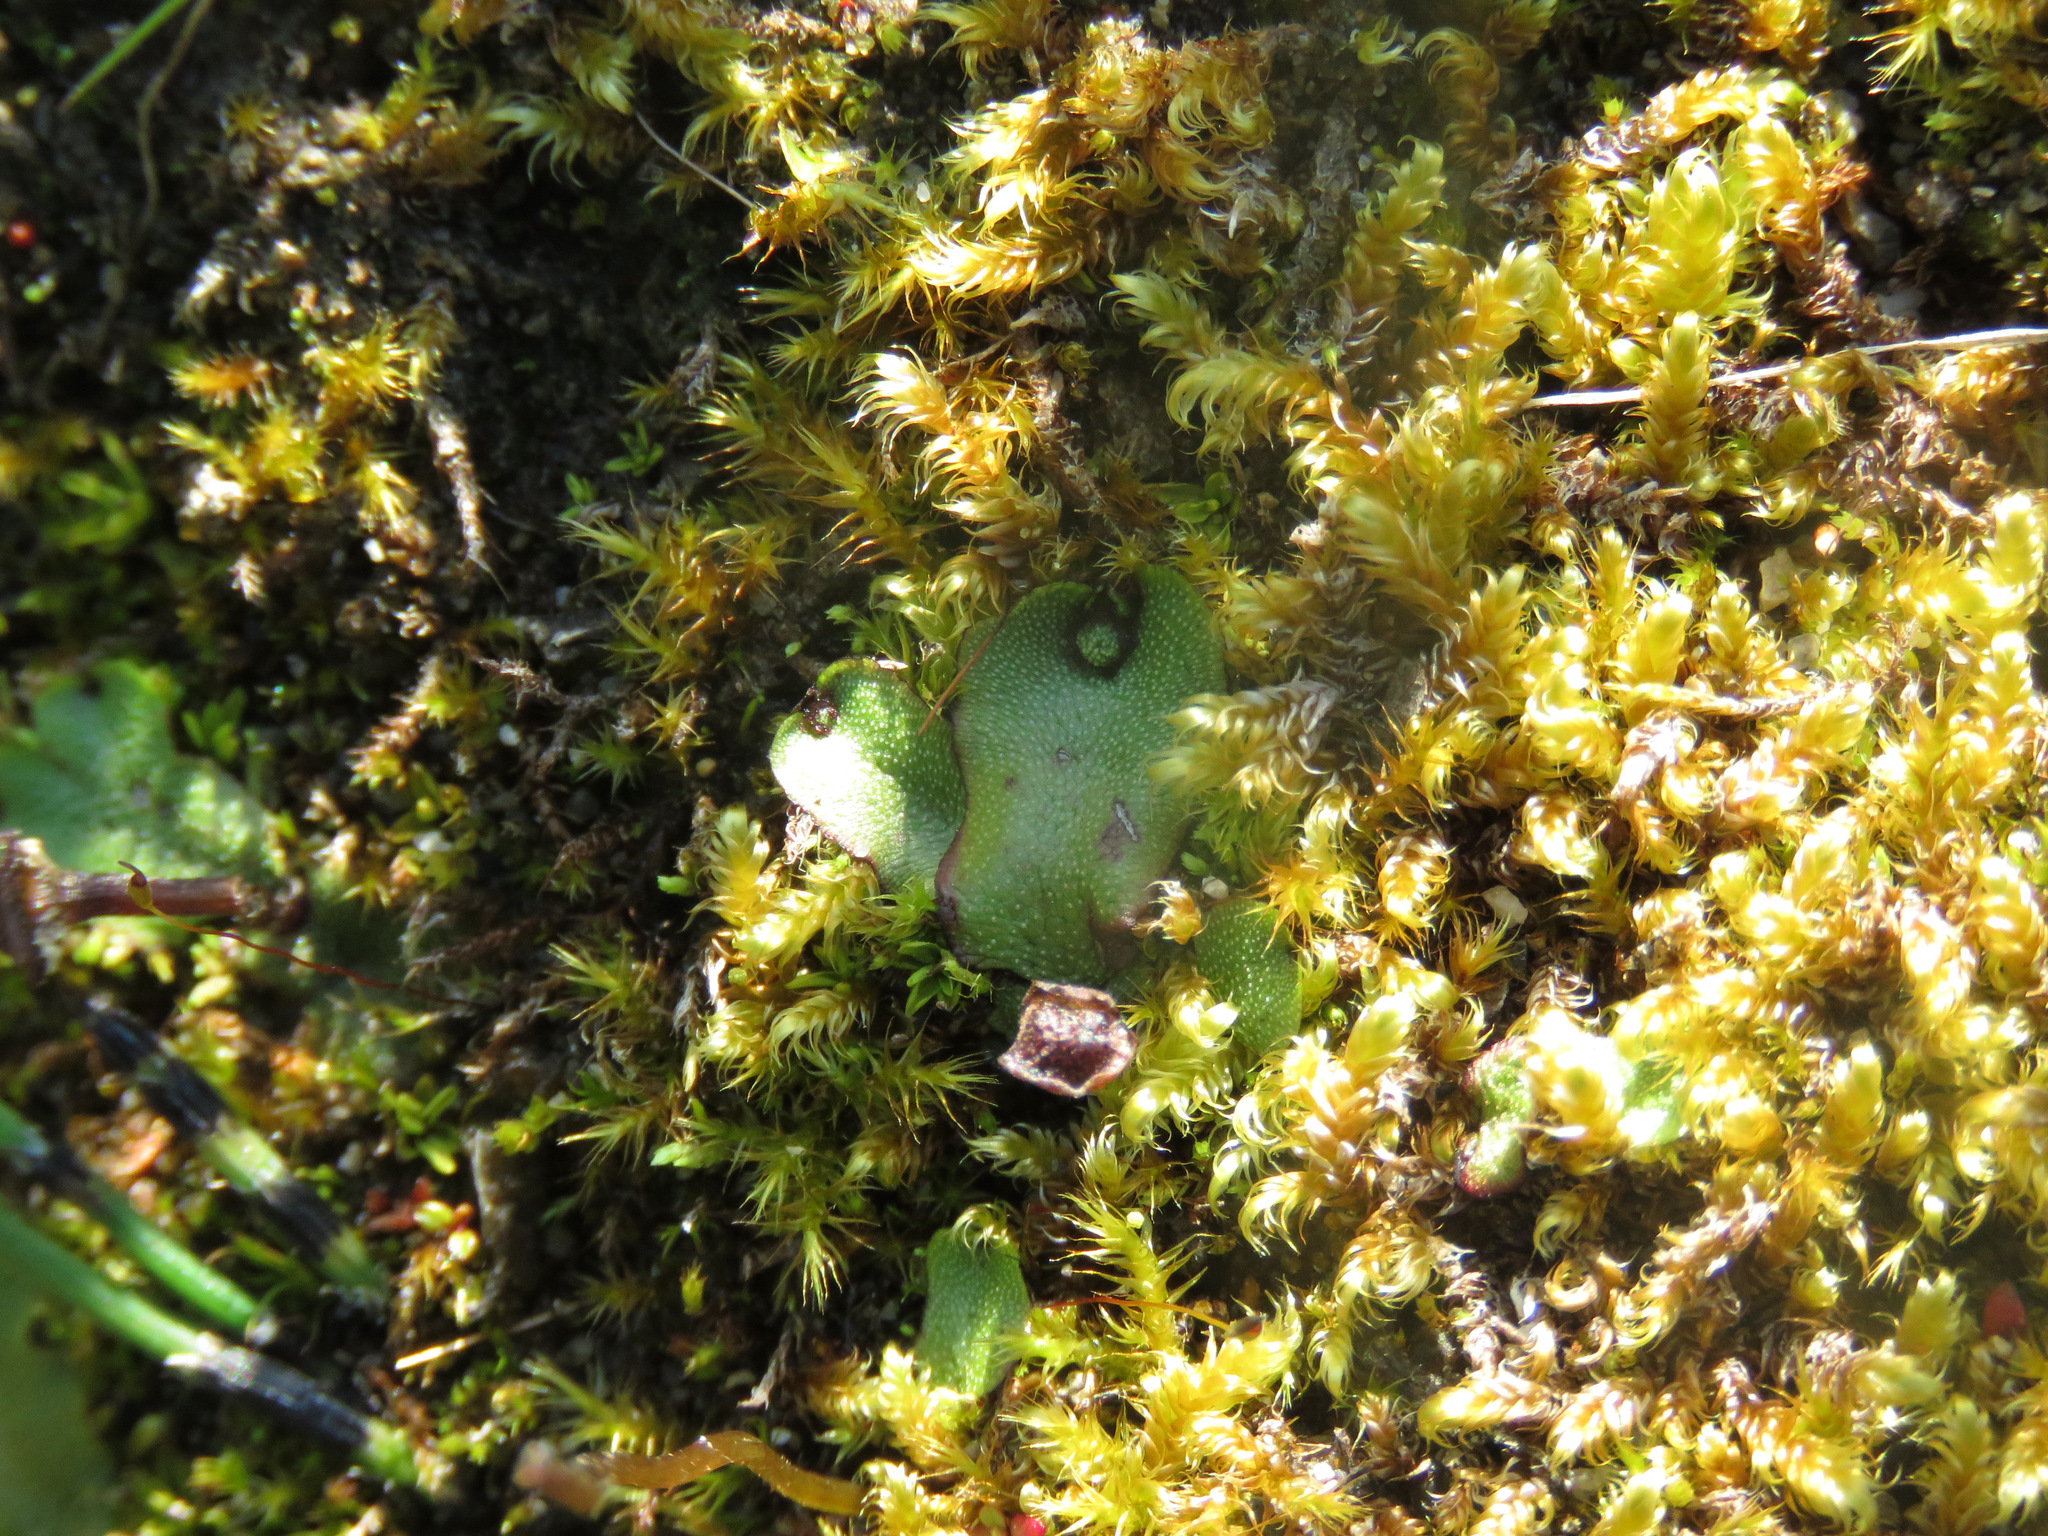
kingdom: Plantae
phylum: Marchantiophyta
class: Marchantiopsida
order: Marchantiales
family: Marchantiaceae
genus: Marchantia
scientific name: Marchantia quadrata
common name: Narrow mushroom-headed liverwort
